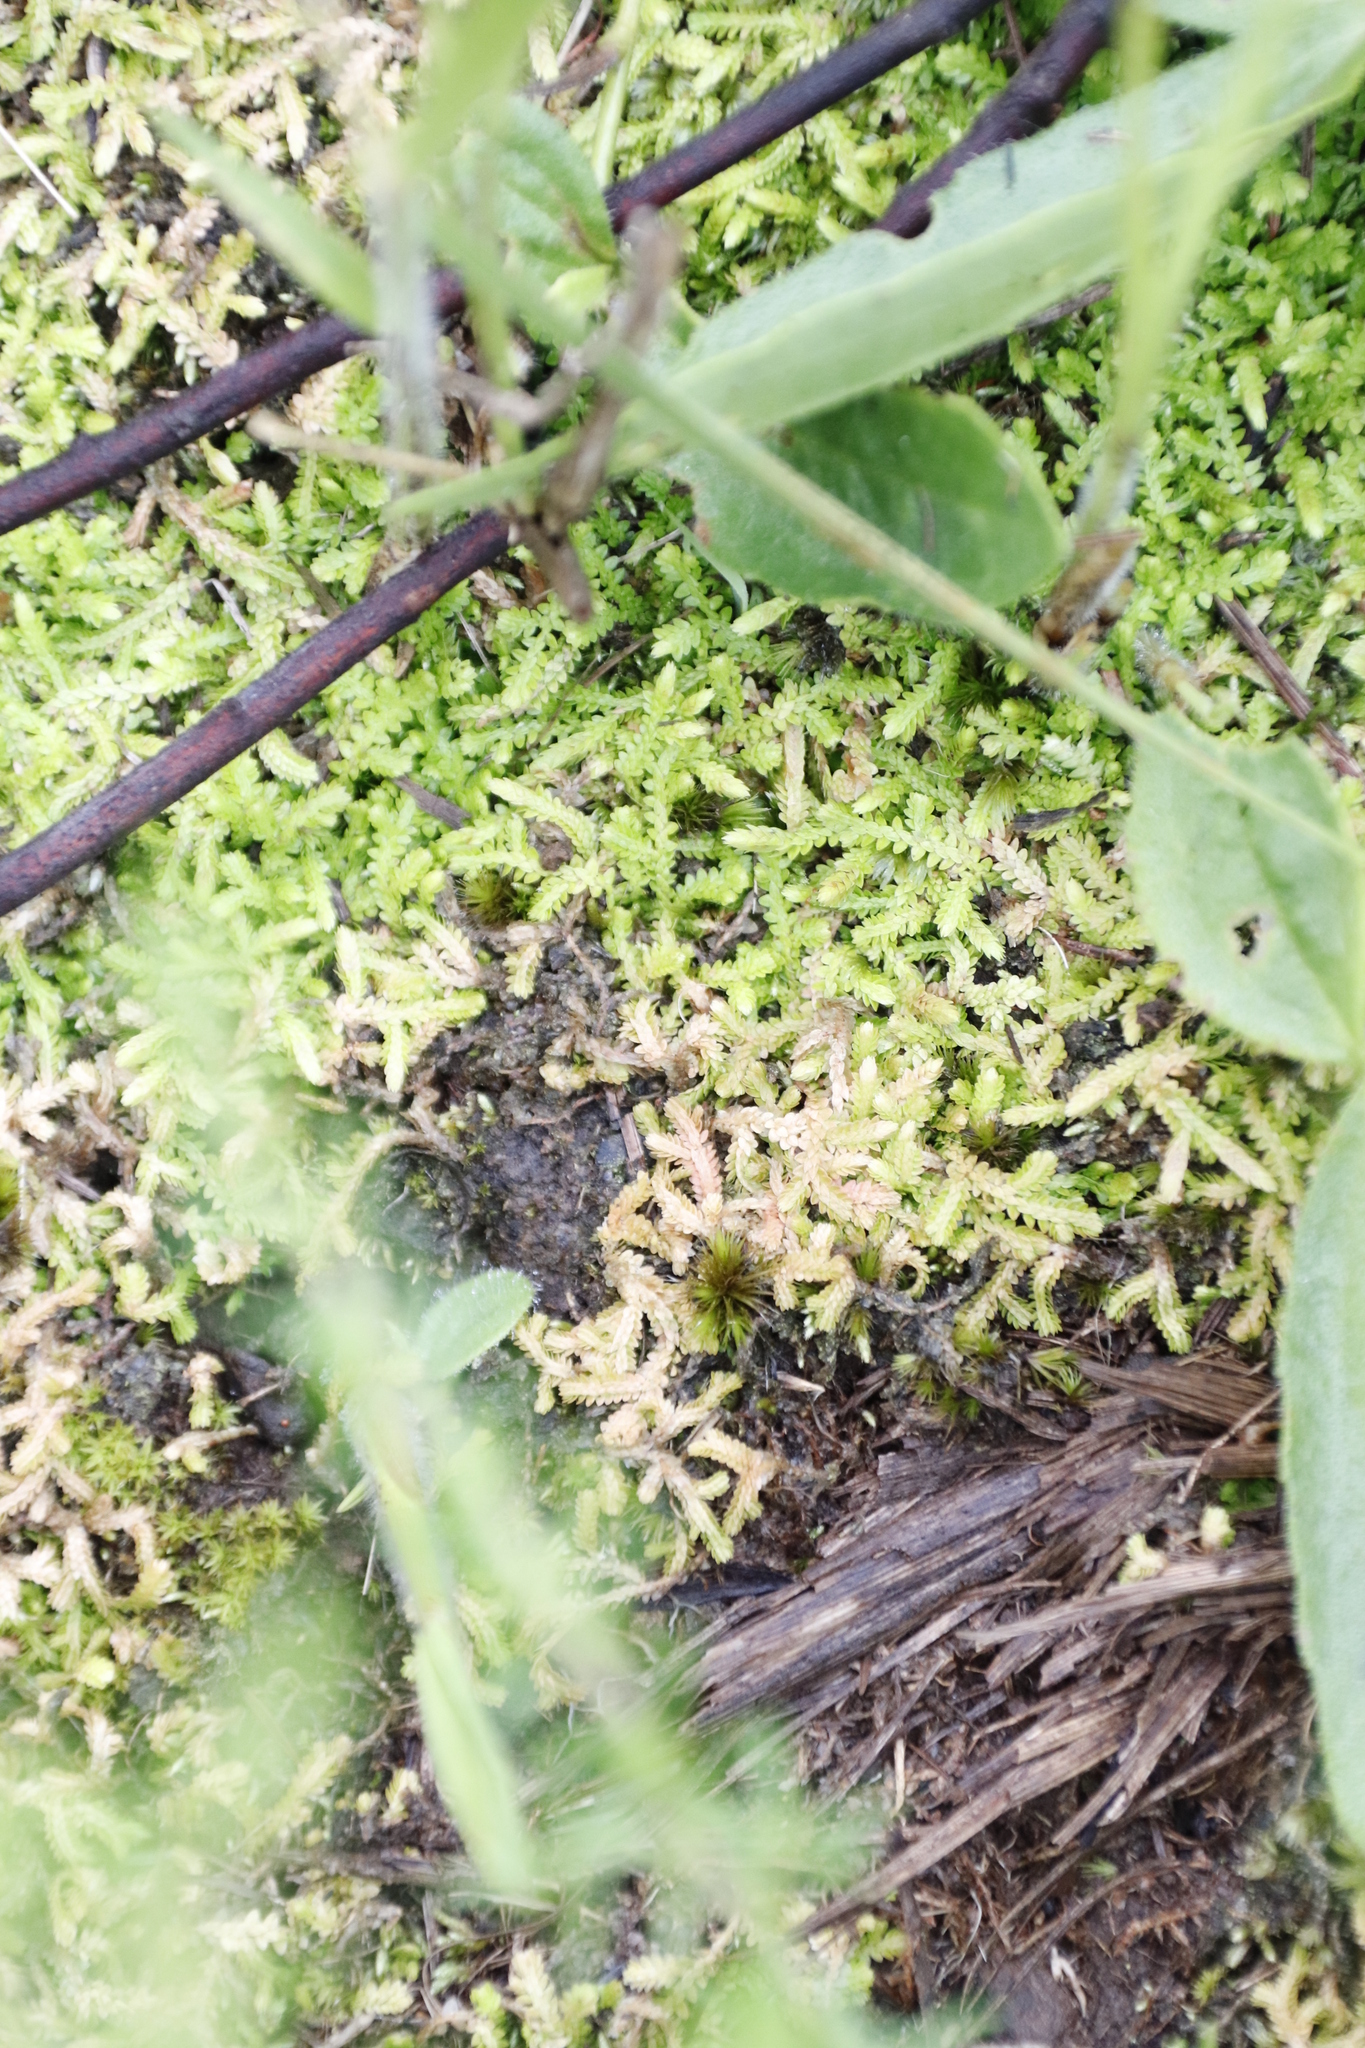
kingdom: Plantae
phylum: Tracheophyta
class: Lycopodiopsida
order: Selaginellales
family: Selaginellaceae
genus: Selaginella
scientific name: Selaginella mittenii
